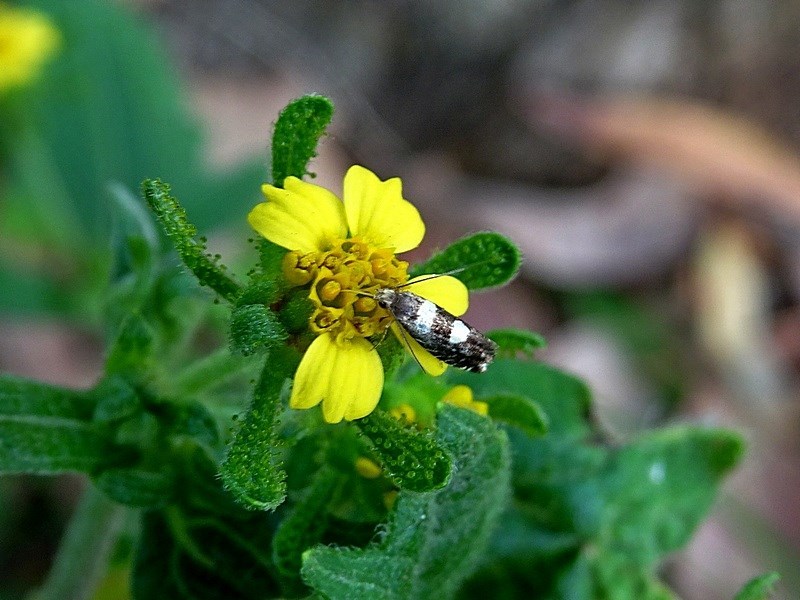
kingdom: Plantae
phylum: Tracheophyta
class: Magnoliopsida
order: Asterales
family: Asteraceae
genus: Sigesbeckia
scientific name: Sigesbeckia orientalis
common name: Eastern st paul's-wort
